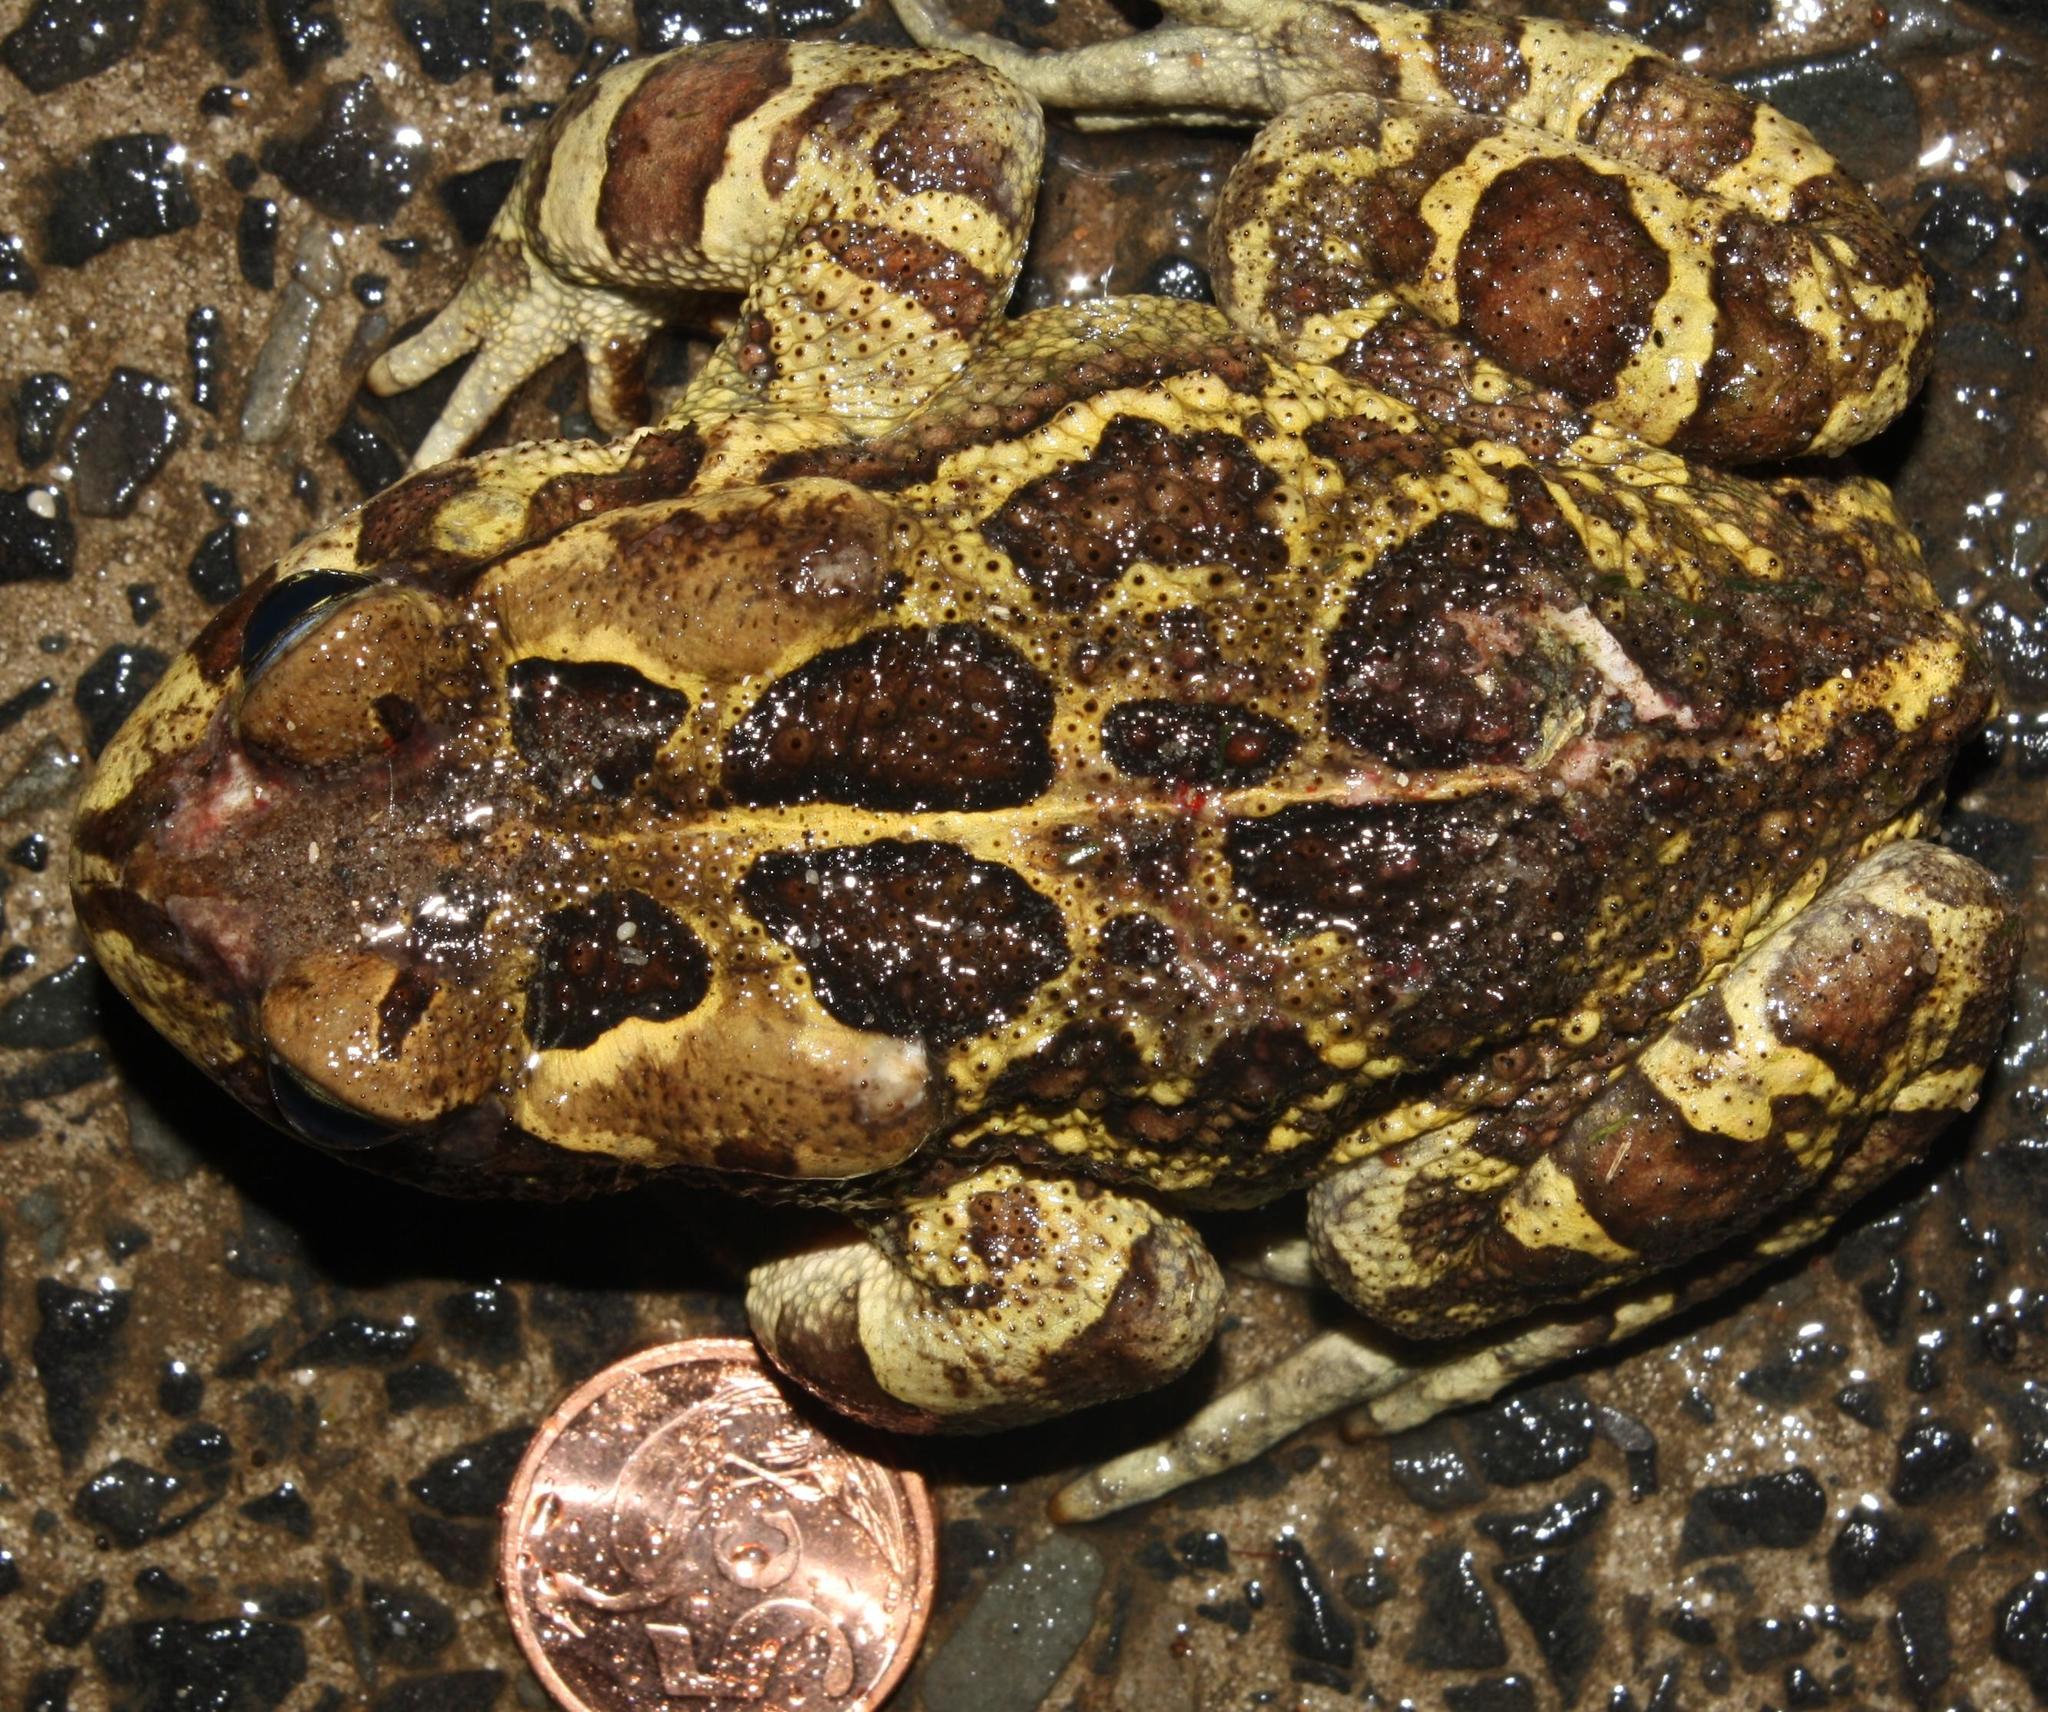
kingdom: Animalia
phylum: Chordata
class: Amphibia
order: Anura
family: Bufonidae
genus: Sclerophrys
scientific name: Sclerophrys pantherina
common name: Panther toad
